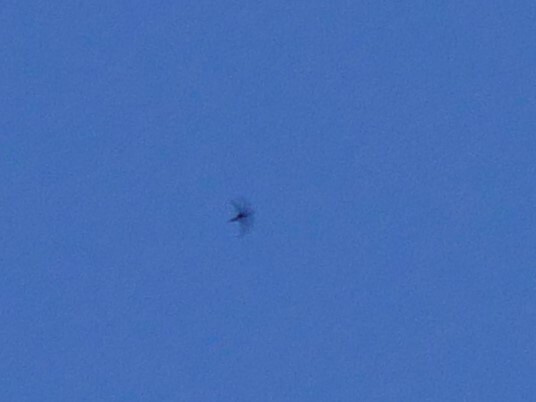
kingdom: Animalia
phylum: Chordata
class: Aves
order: Apodiformes
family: Apodidae
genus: Cypseloides
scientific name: Cypseloides niger
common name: Black swift
